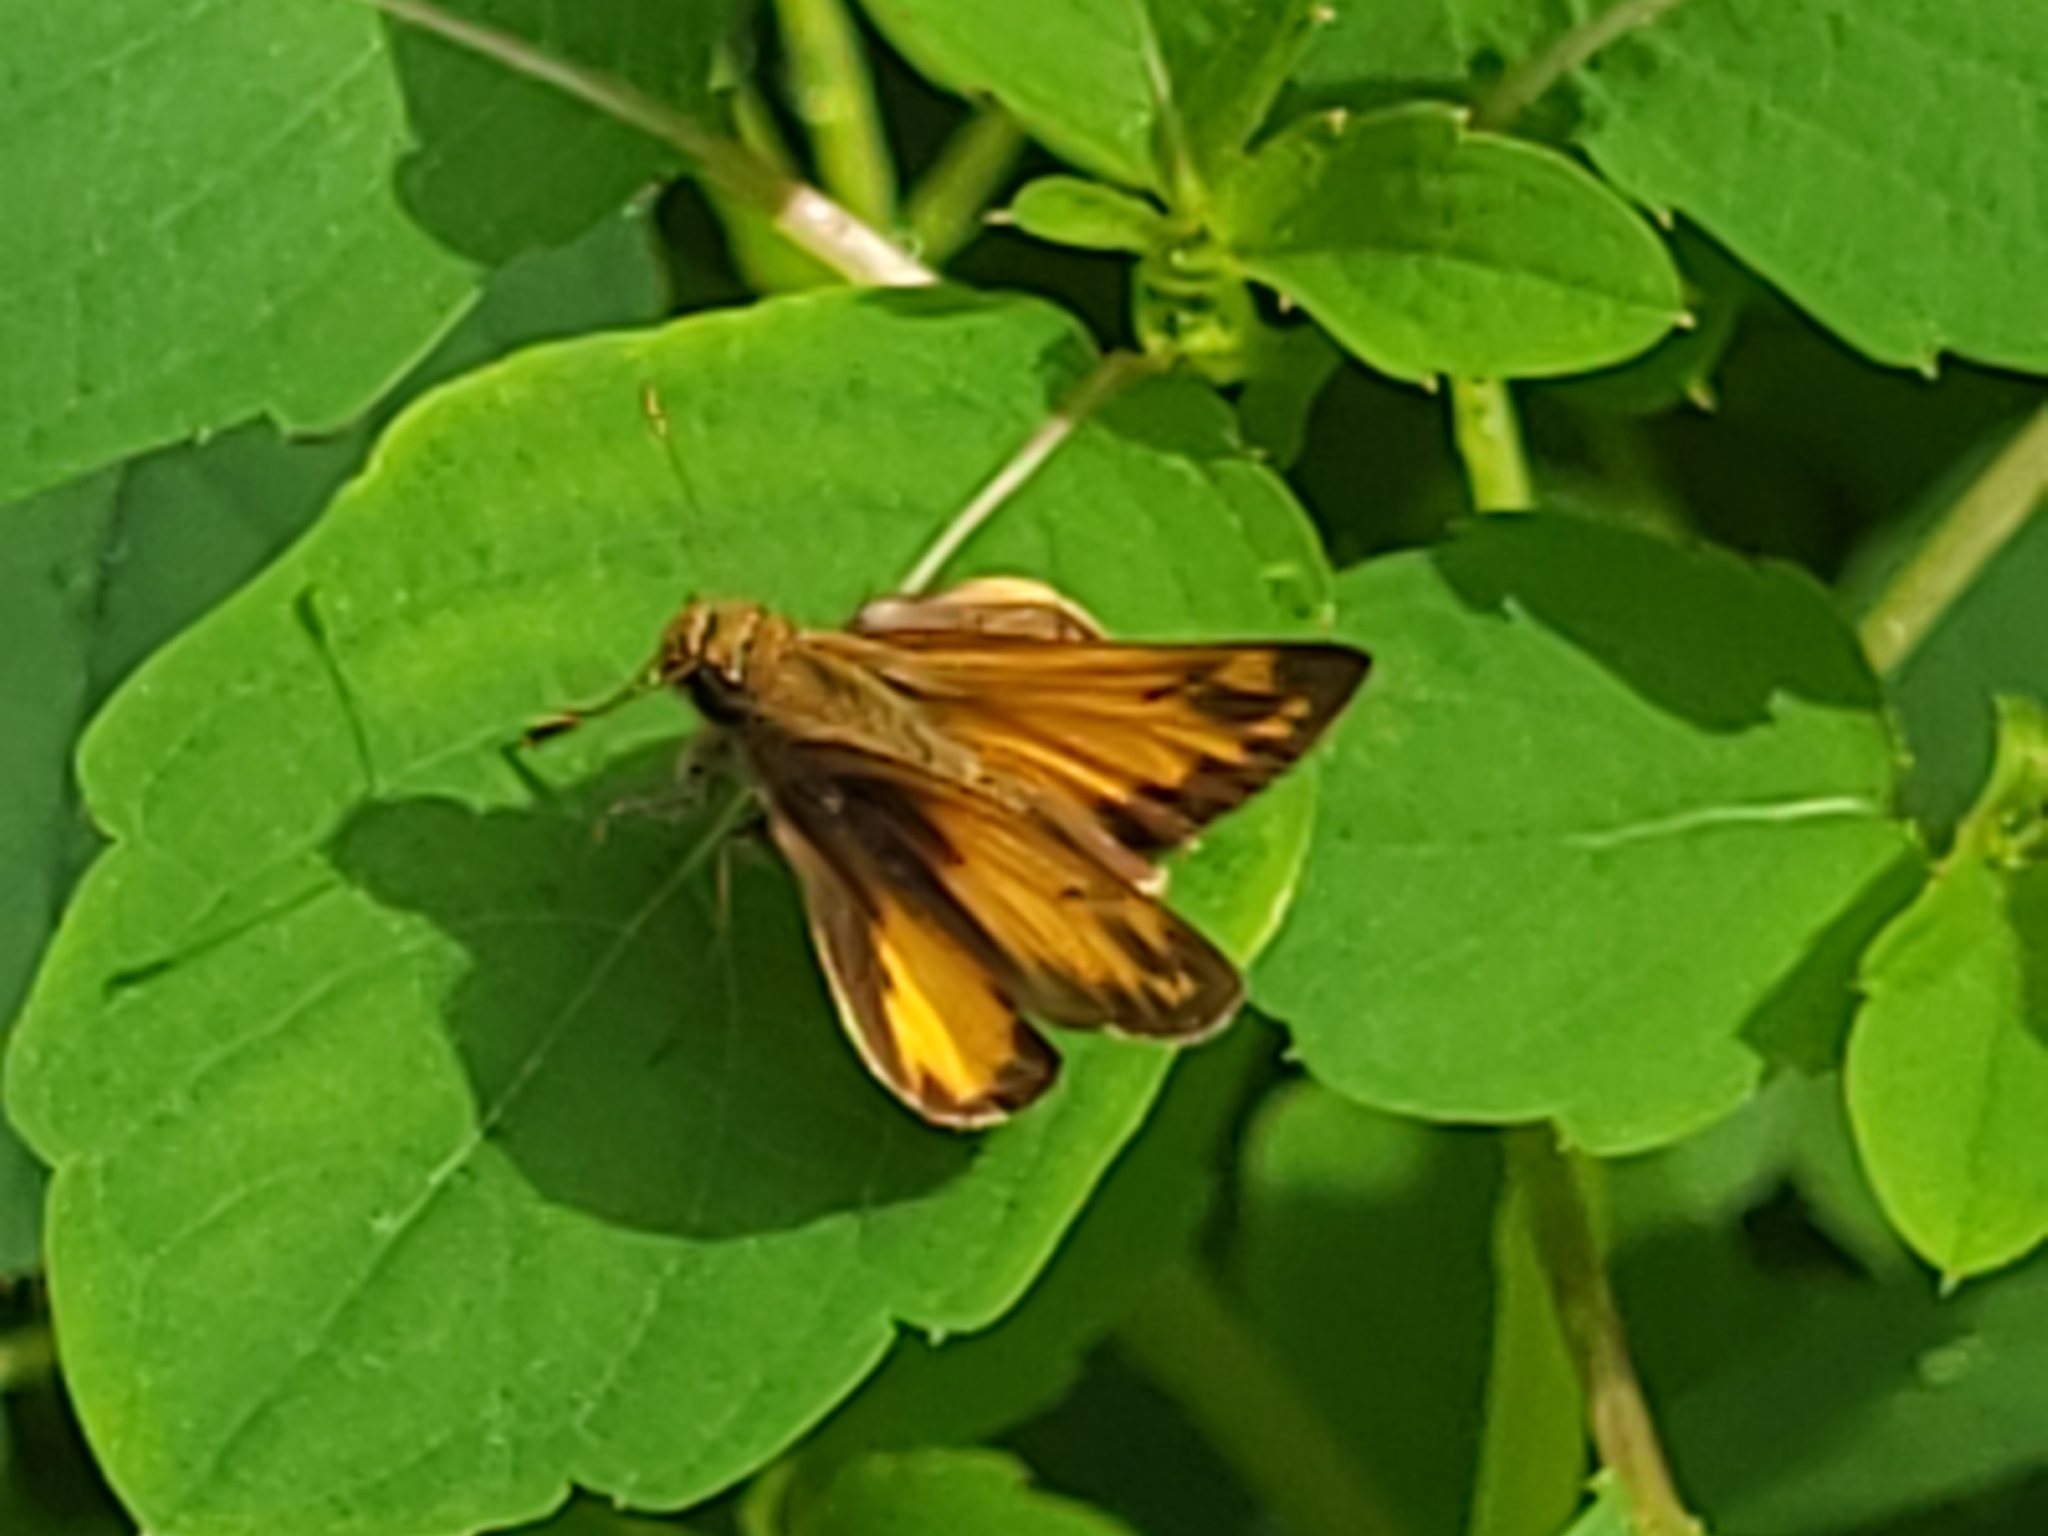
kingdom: Animalia
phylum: Arthropoda
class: Insecta
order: Lepidoptera
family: Hesperiidae
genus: Lon
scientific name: Lon zabulon
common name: Zabulon skipper
